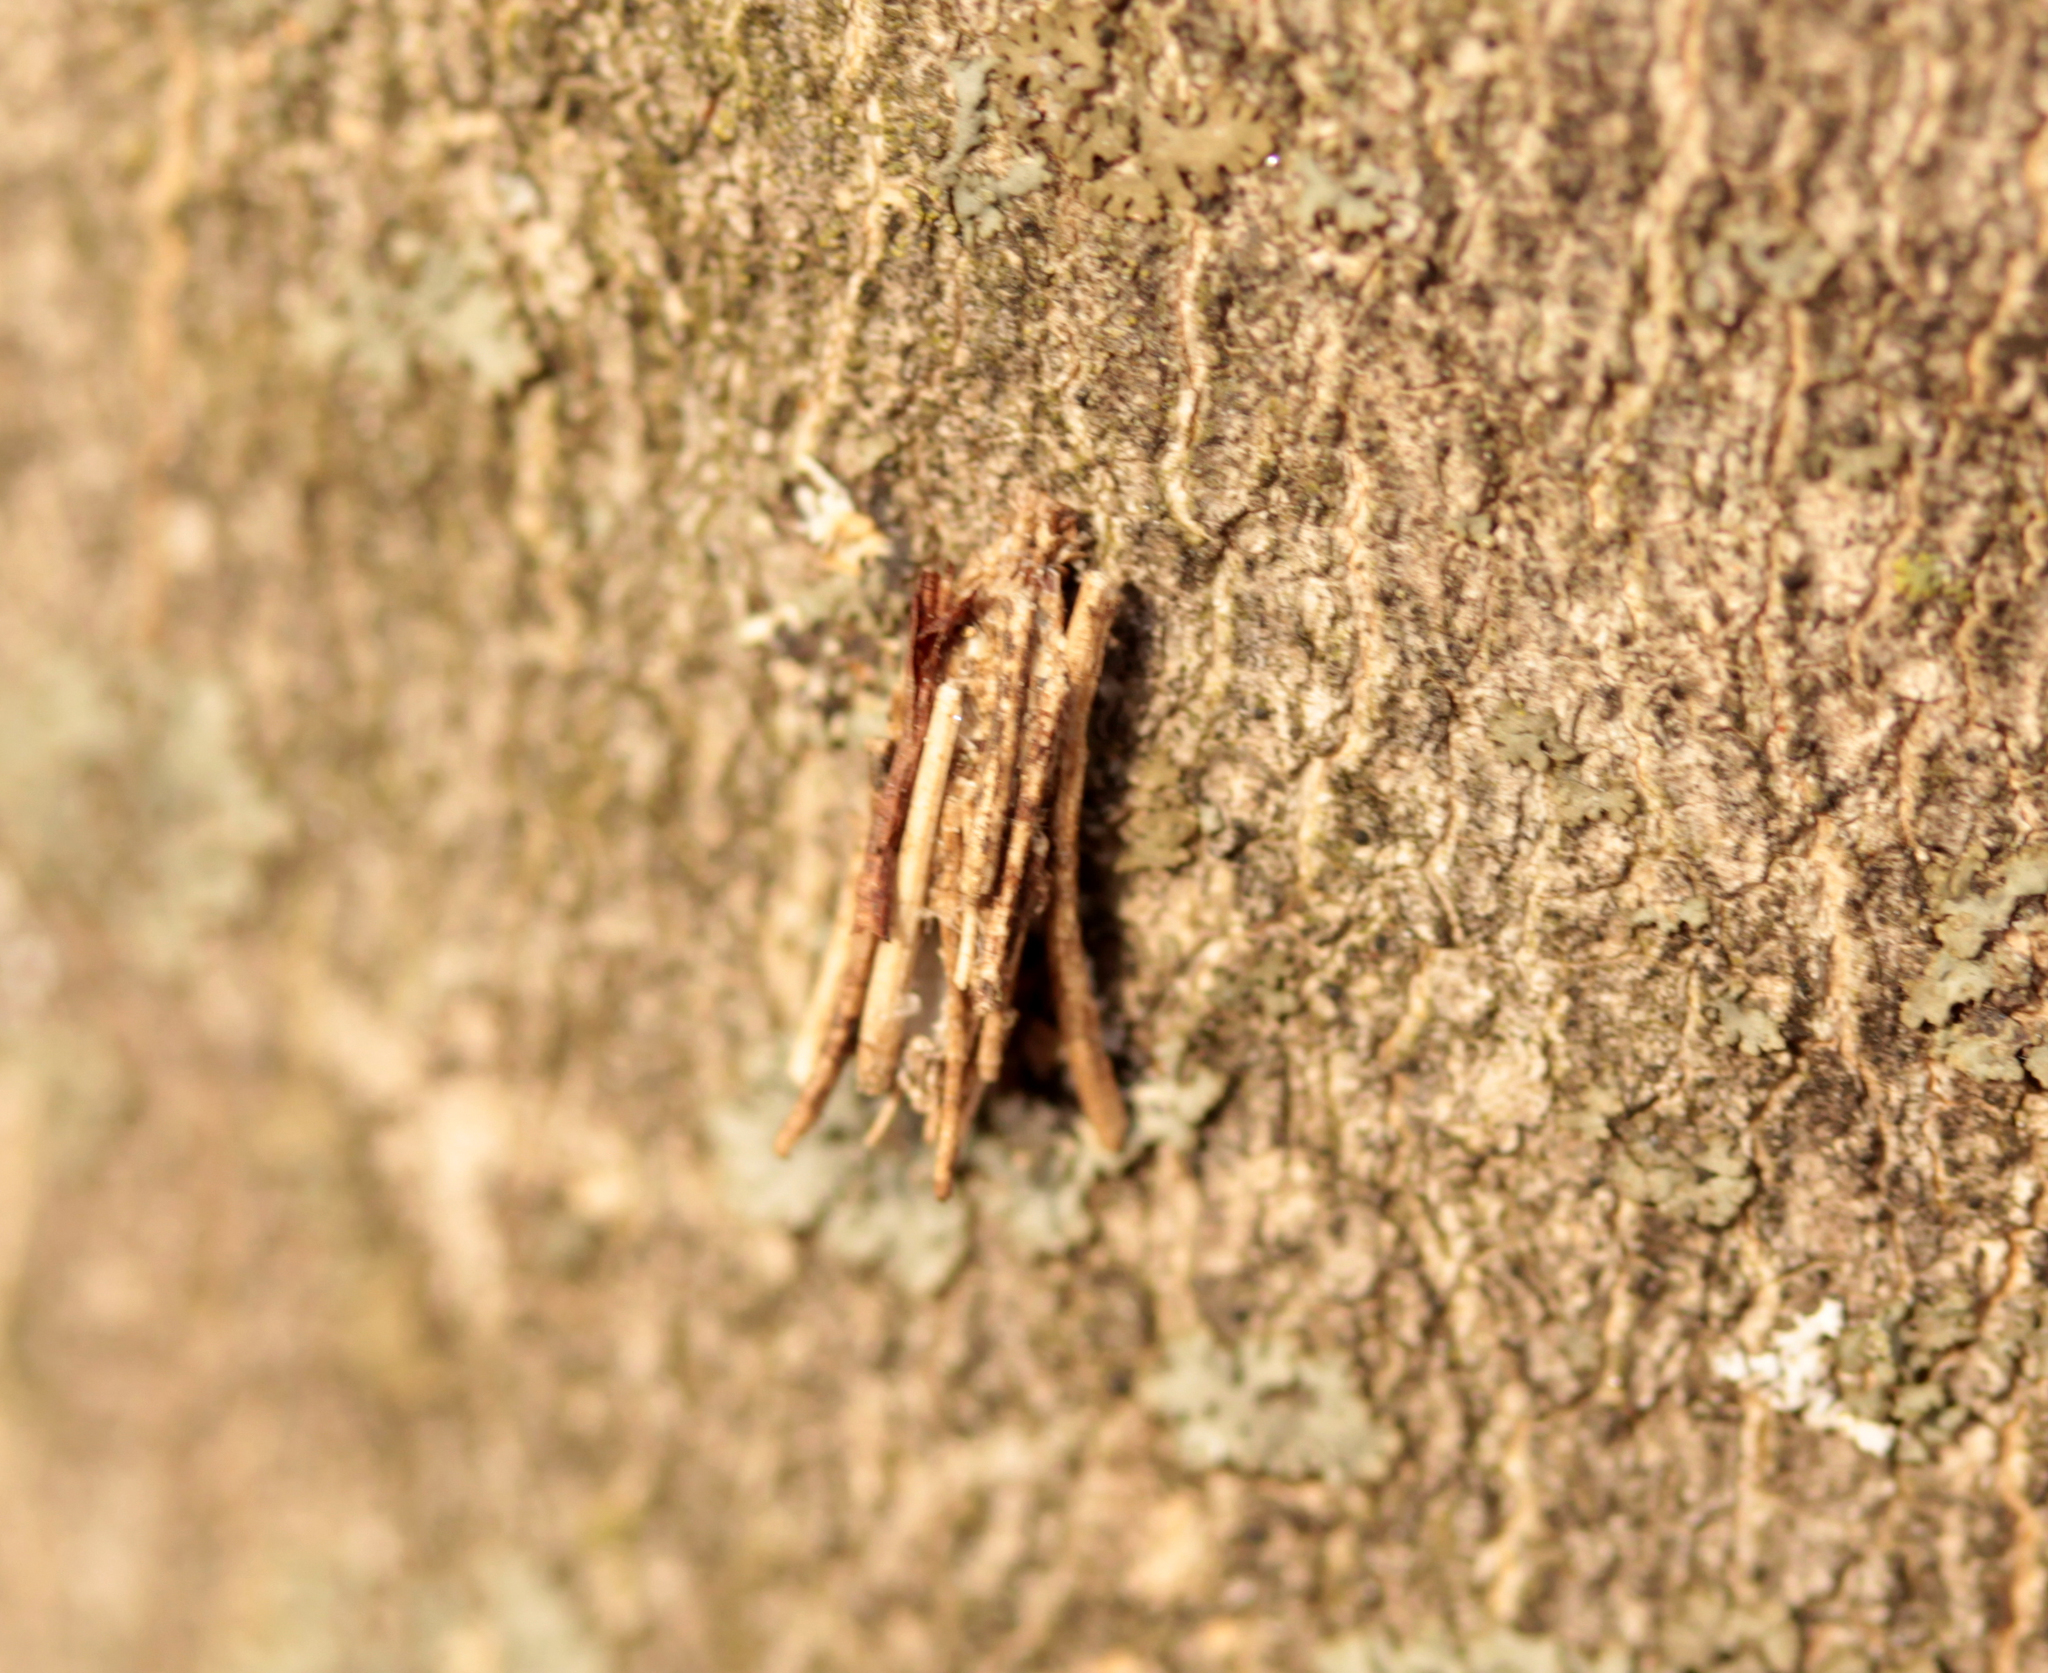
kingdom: Animalia
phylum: Arthropoda
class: Insecta
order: Lepidoptera
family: Psychidae
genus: Psyche
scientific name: Psyche casta
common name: Common sweep
